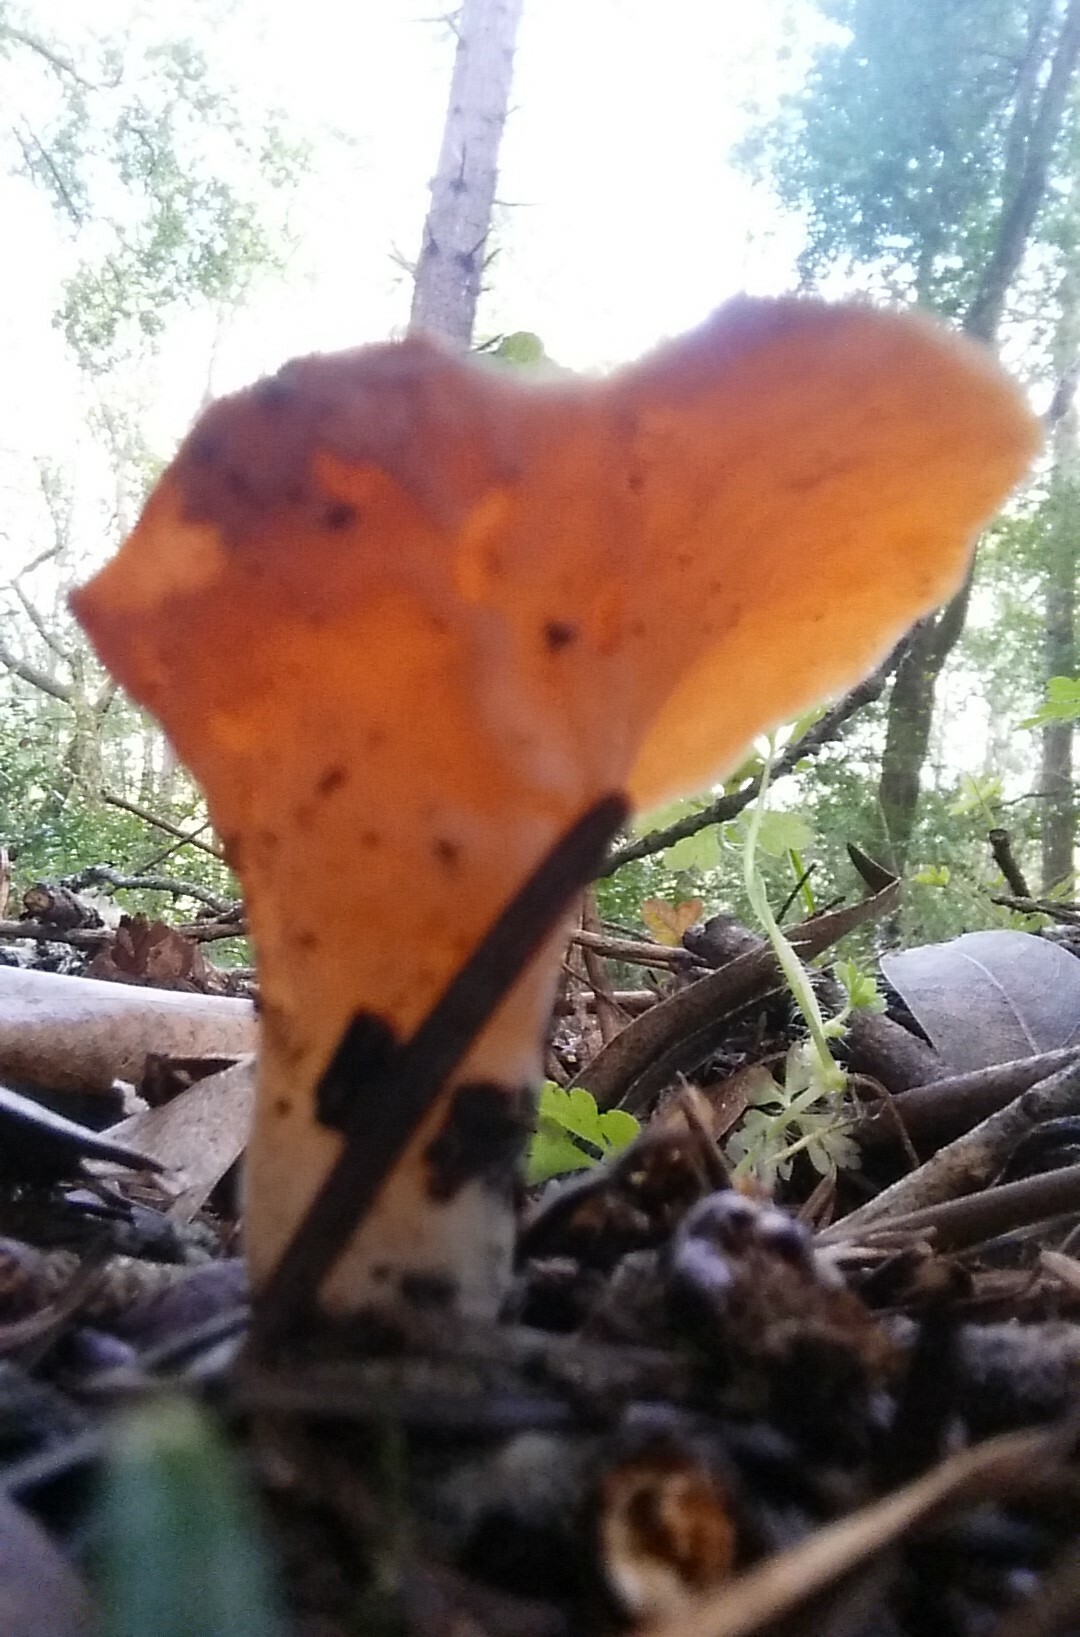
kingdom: Fungi
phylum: Basidiomycota
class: Agaricomycetes
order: Auriculariales
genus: Guepinia
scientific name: Guepinia helvelloides
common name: Salmon salad
